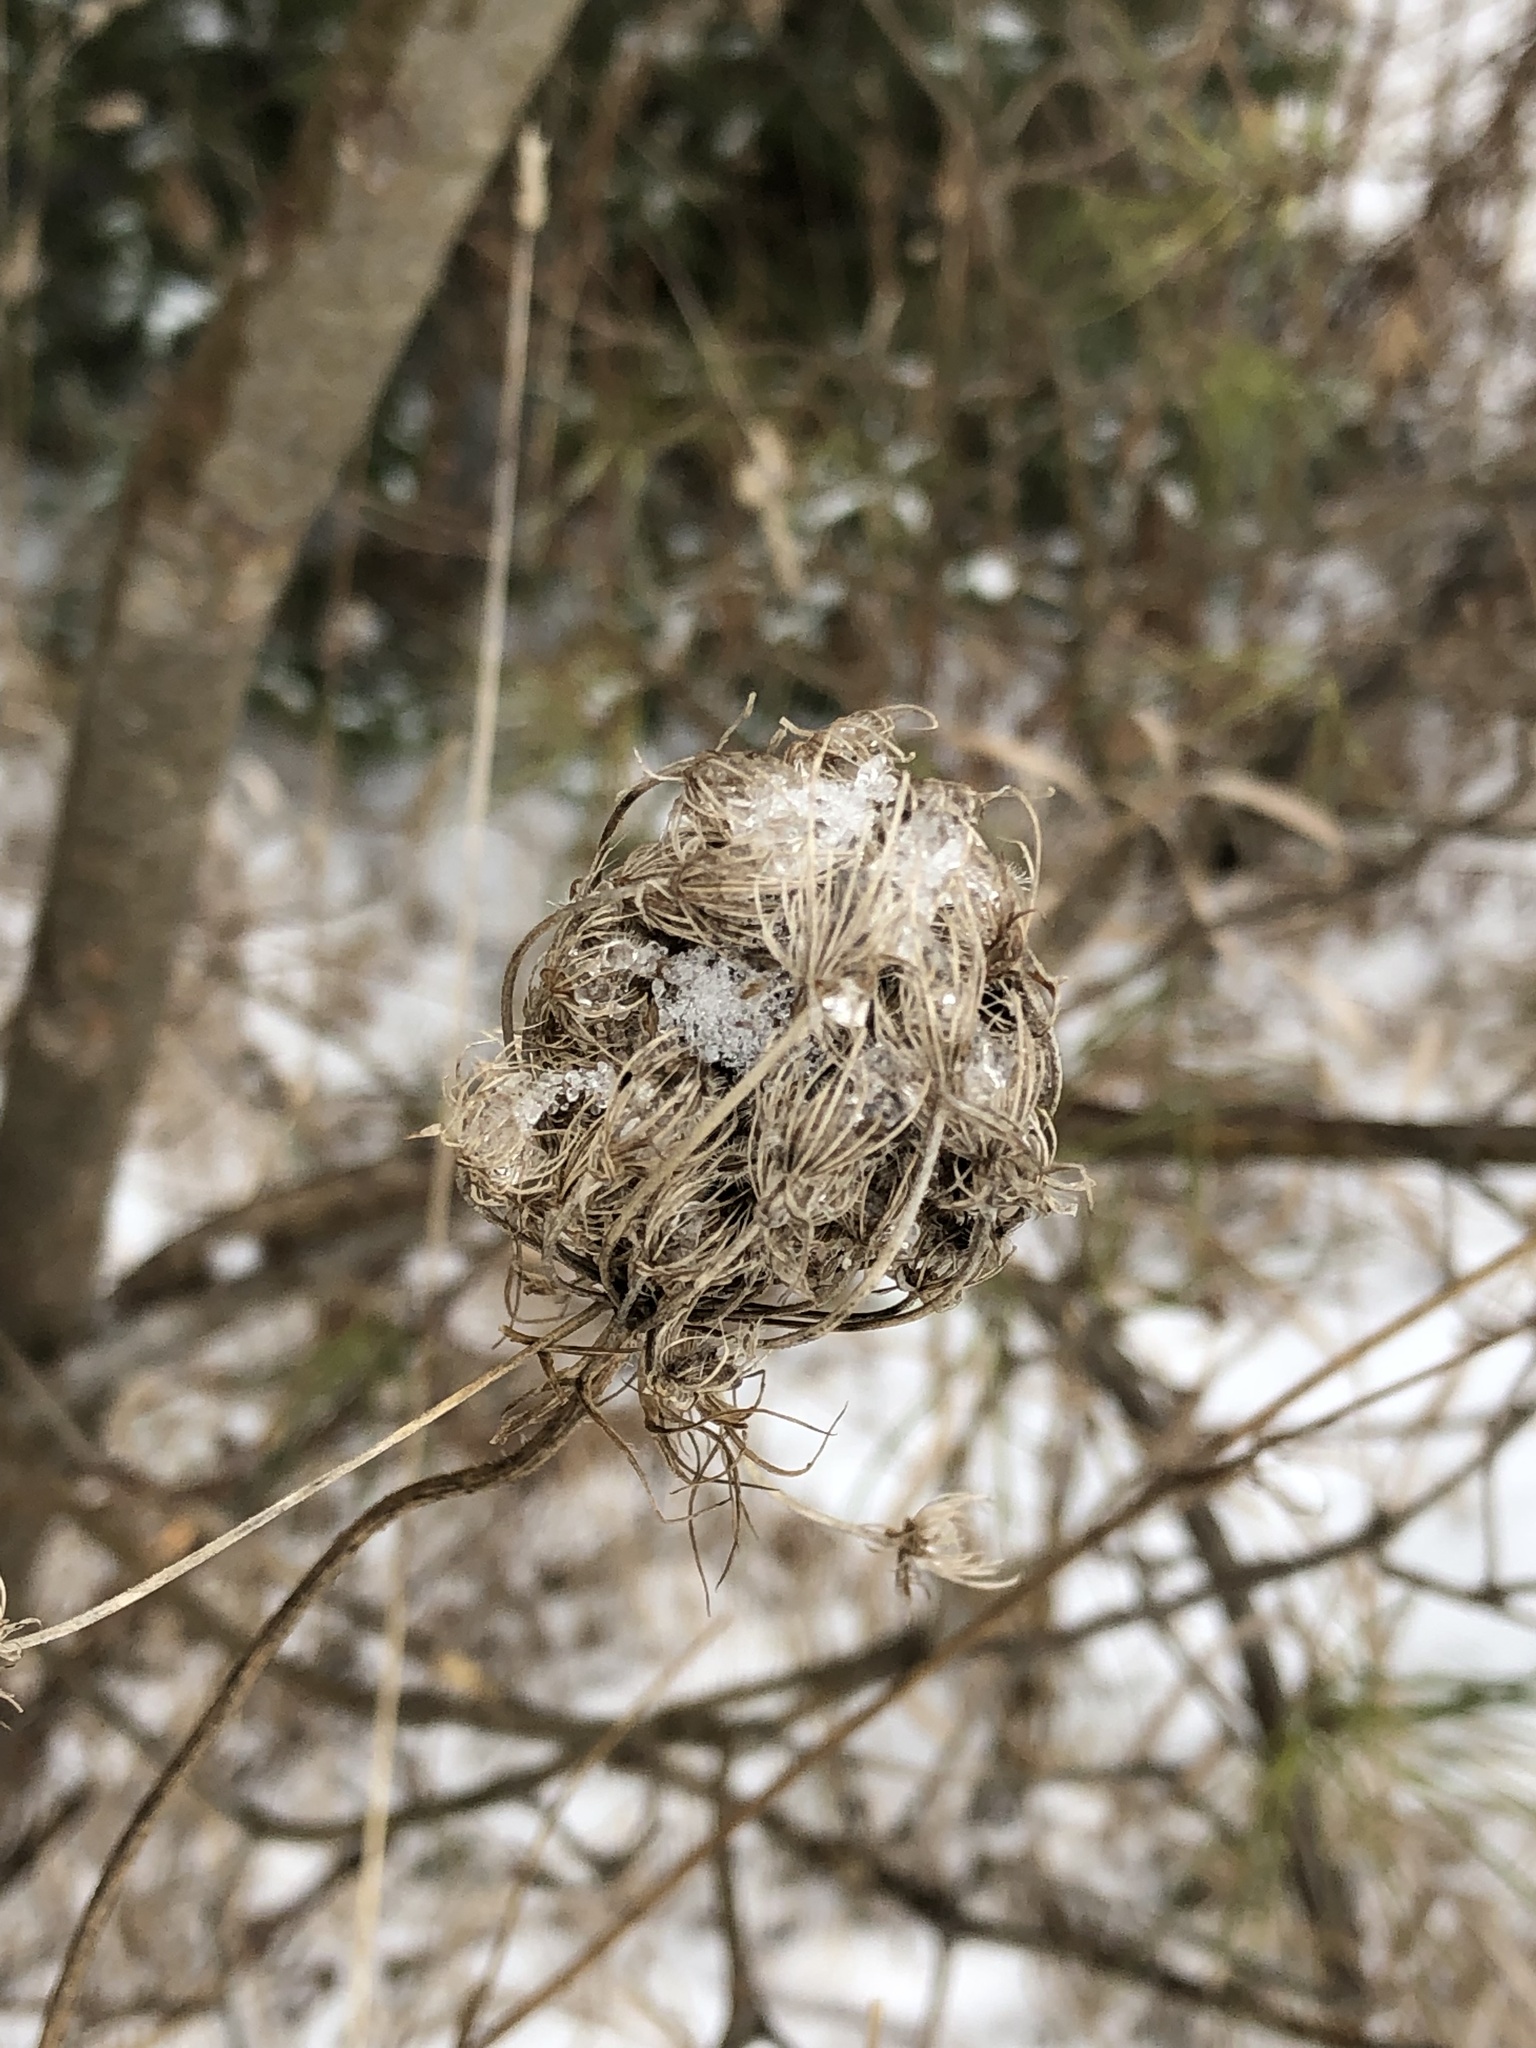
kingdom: Plantae
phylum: Tracheophyta
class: Magnoliopsida
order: Apiales
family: Apiaceae
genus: Daucus
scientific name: Daucus carota
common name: Wild carrot
